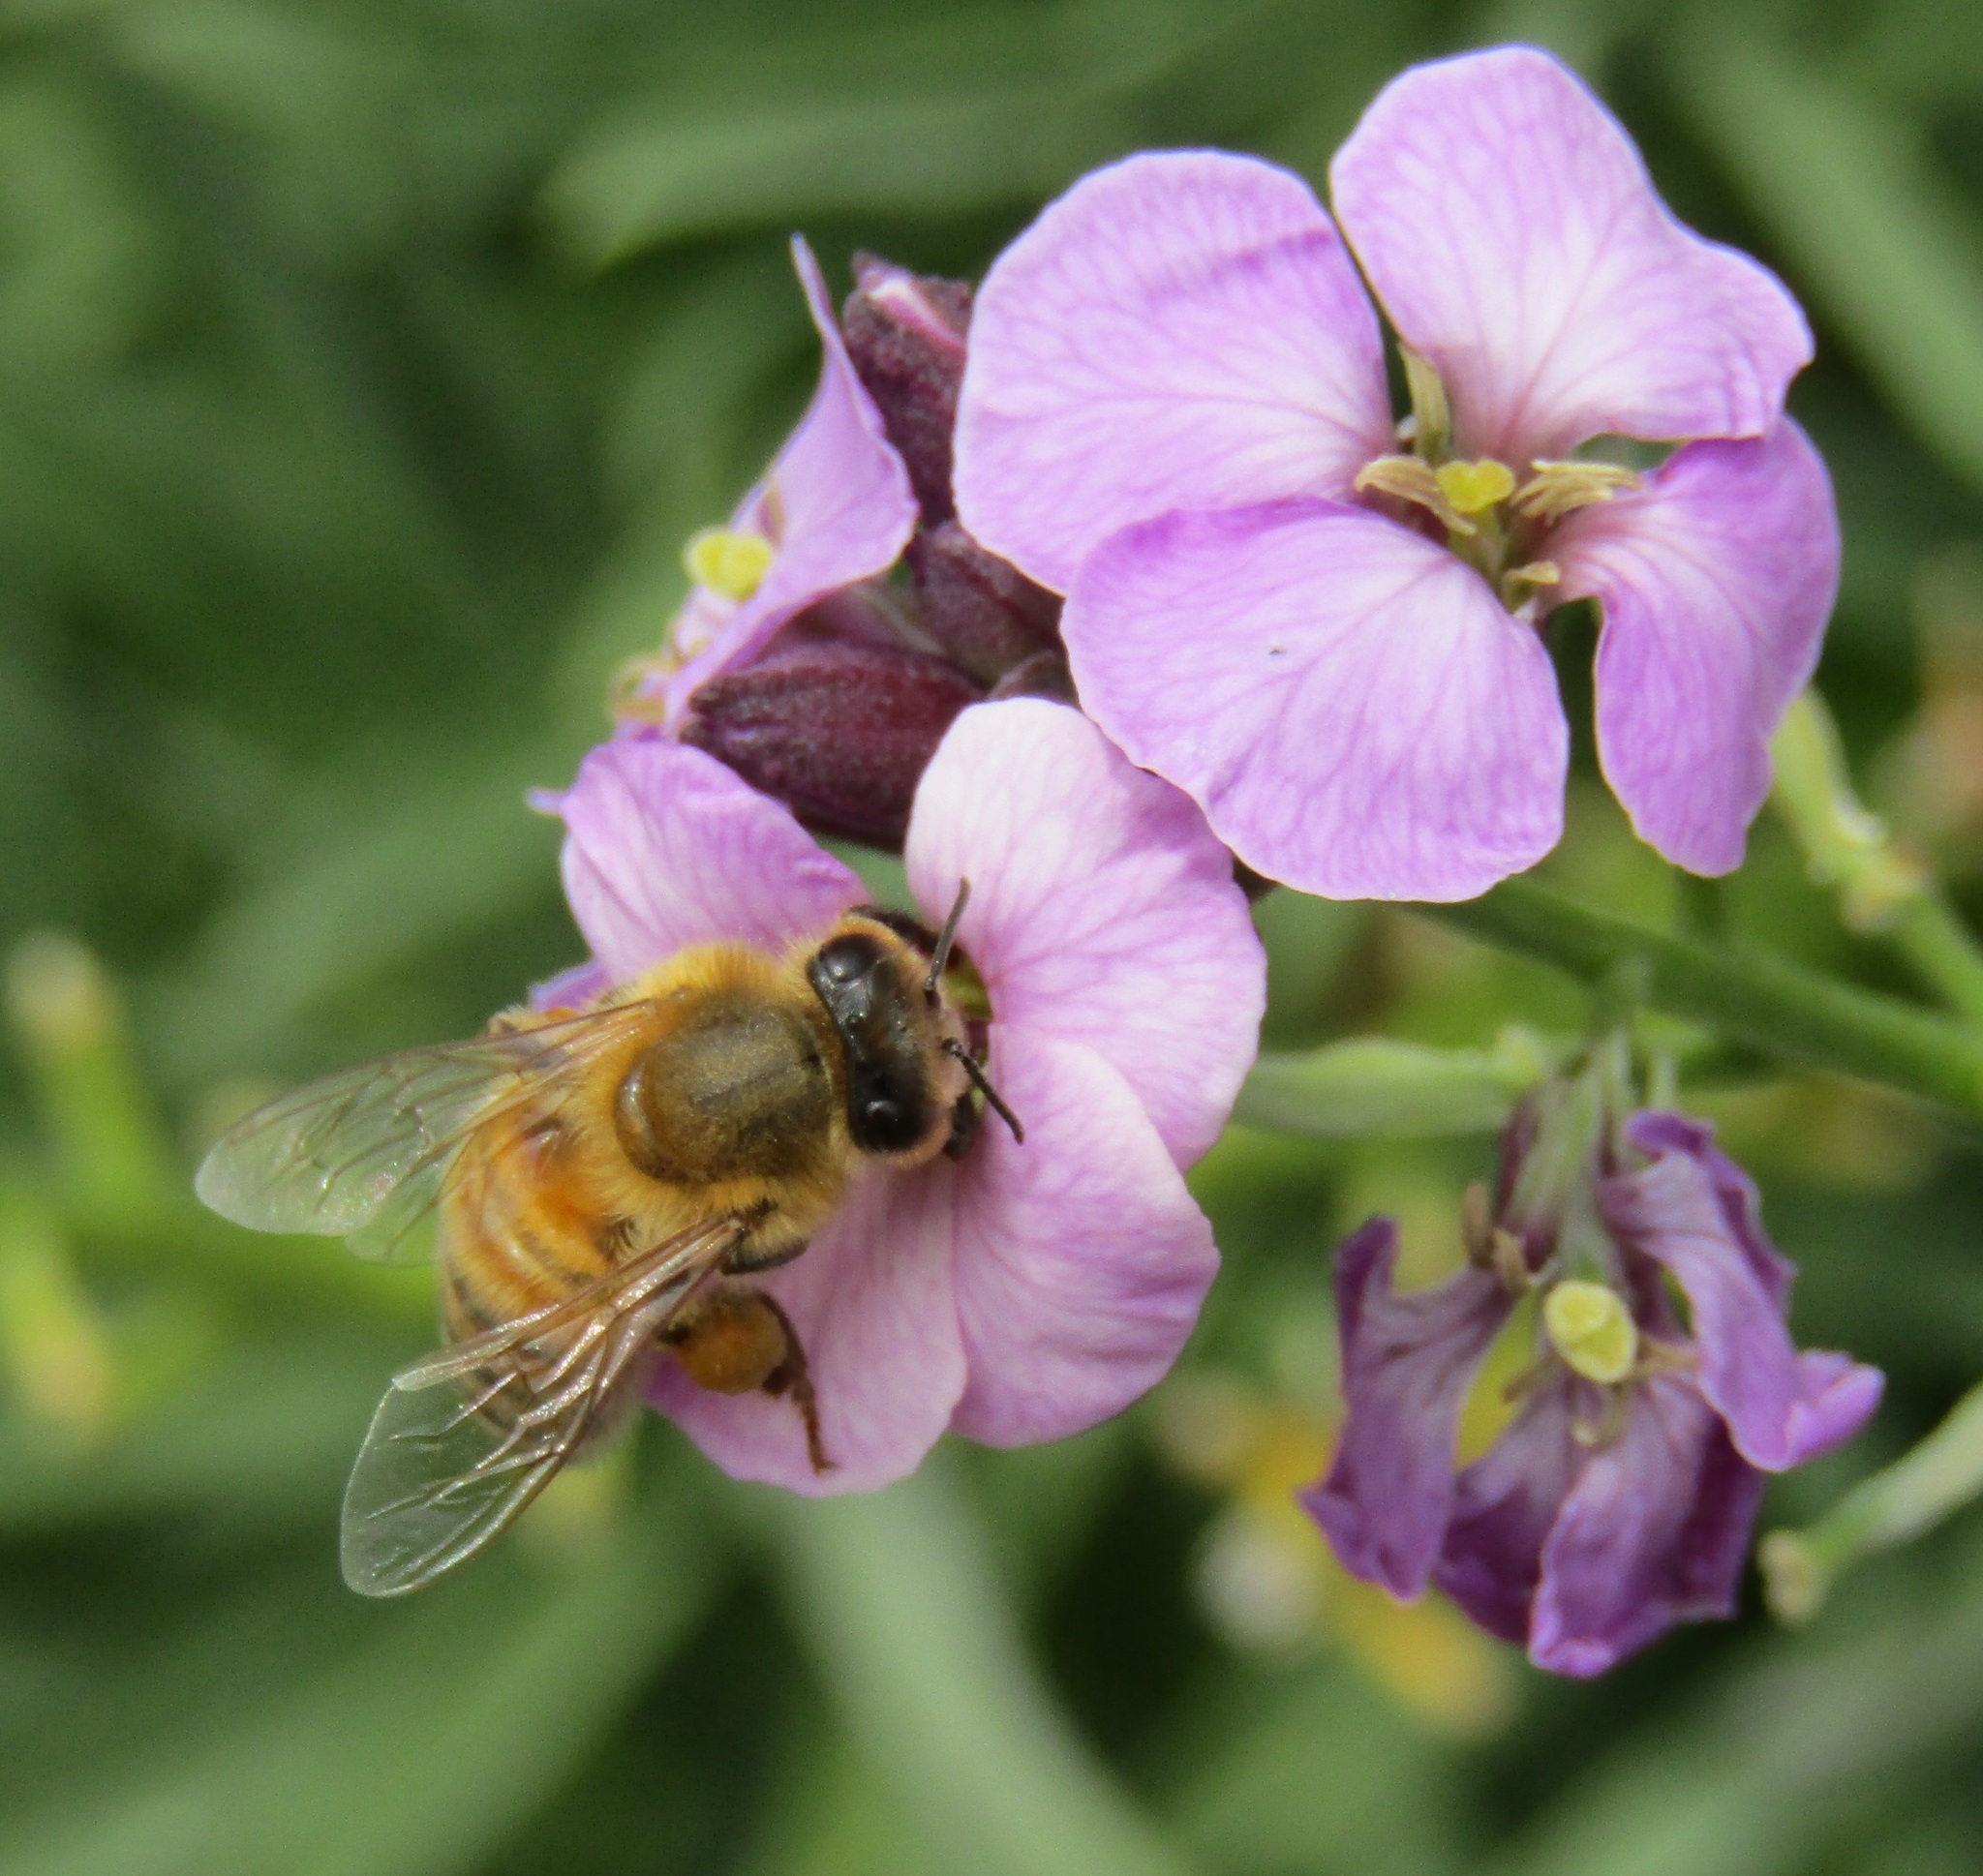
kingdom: Animalia
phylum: Arthropoda
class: Insecta
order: Hymenoptera
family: Apidae
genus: Apis
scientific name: Apis mellifera
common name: Honey bee
